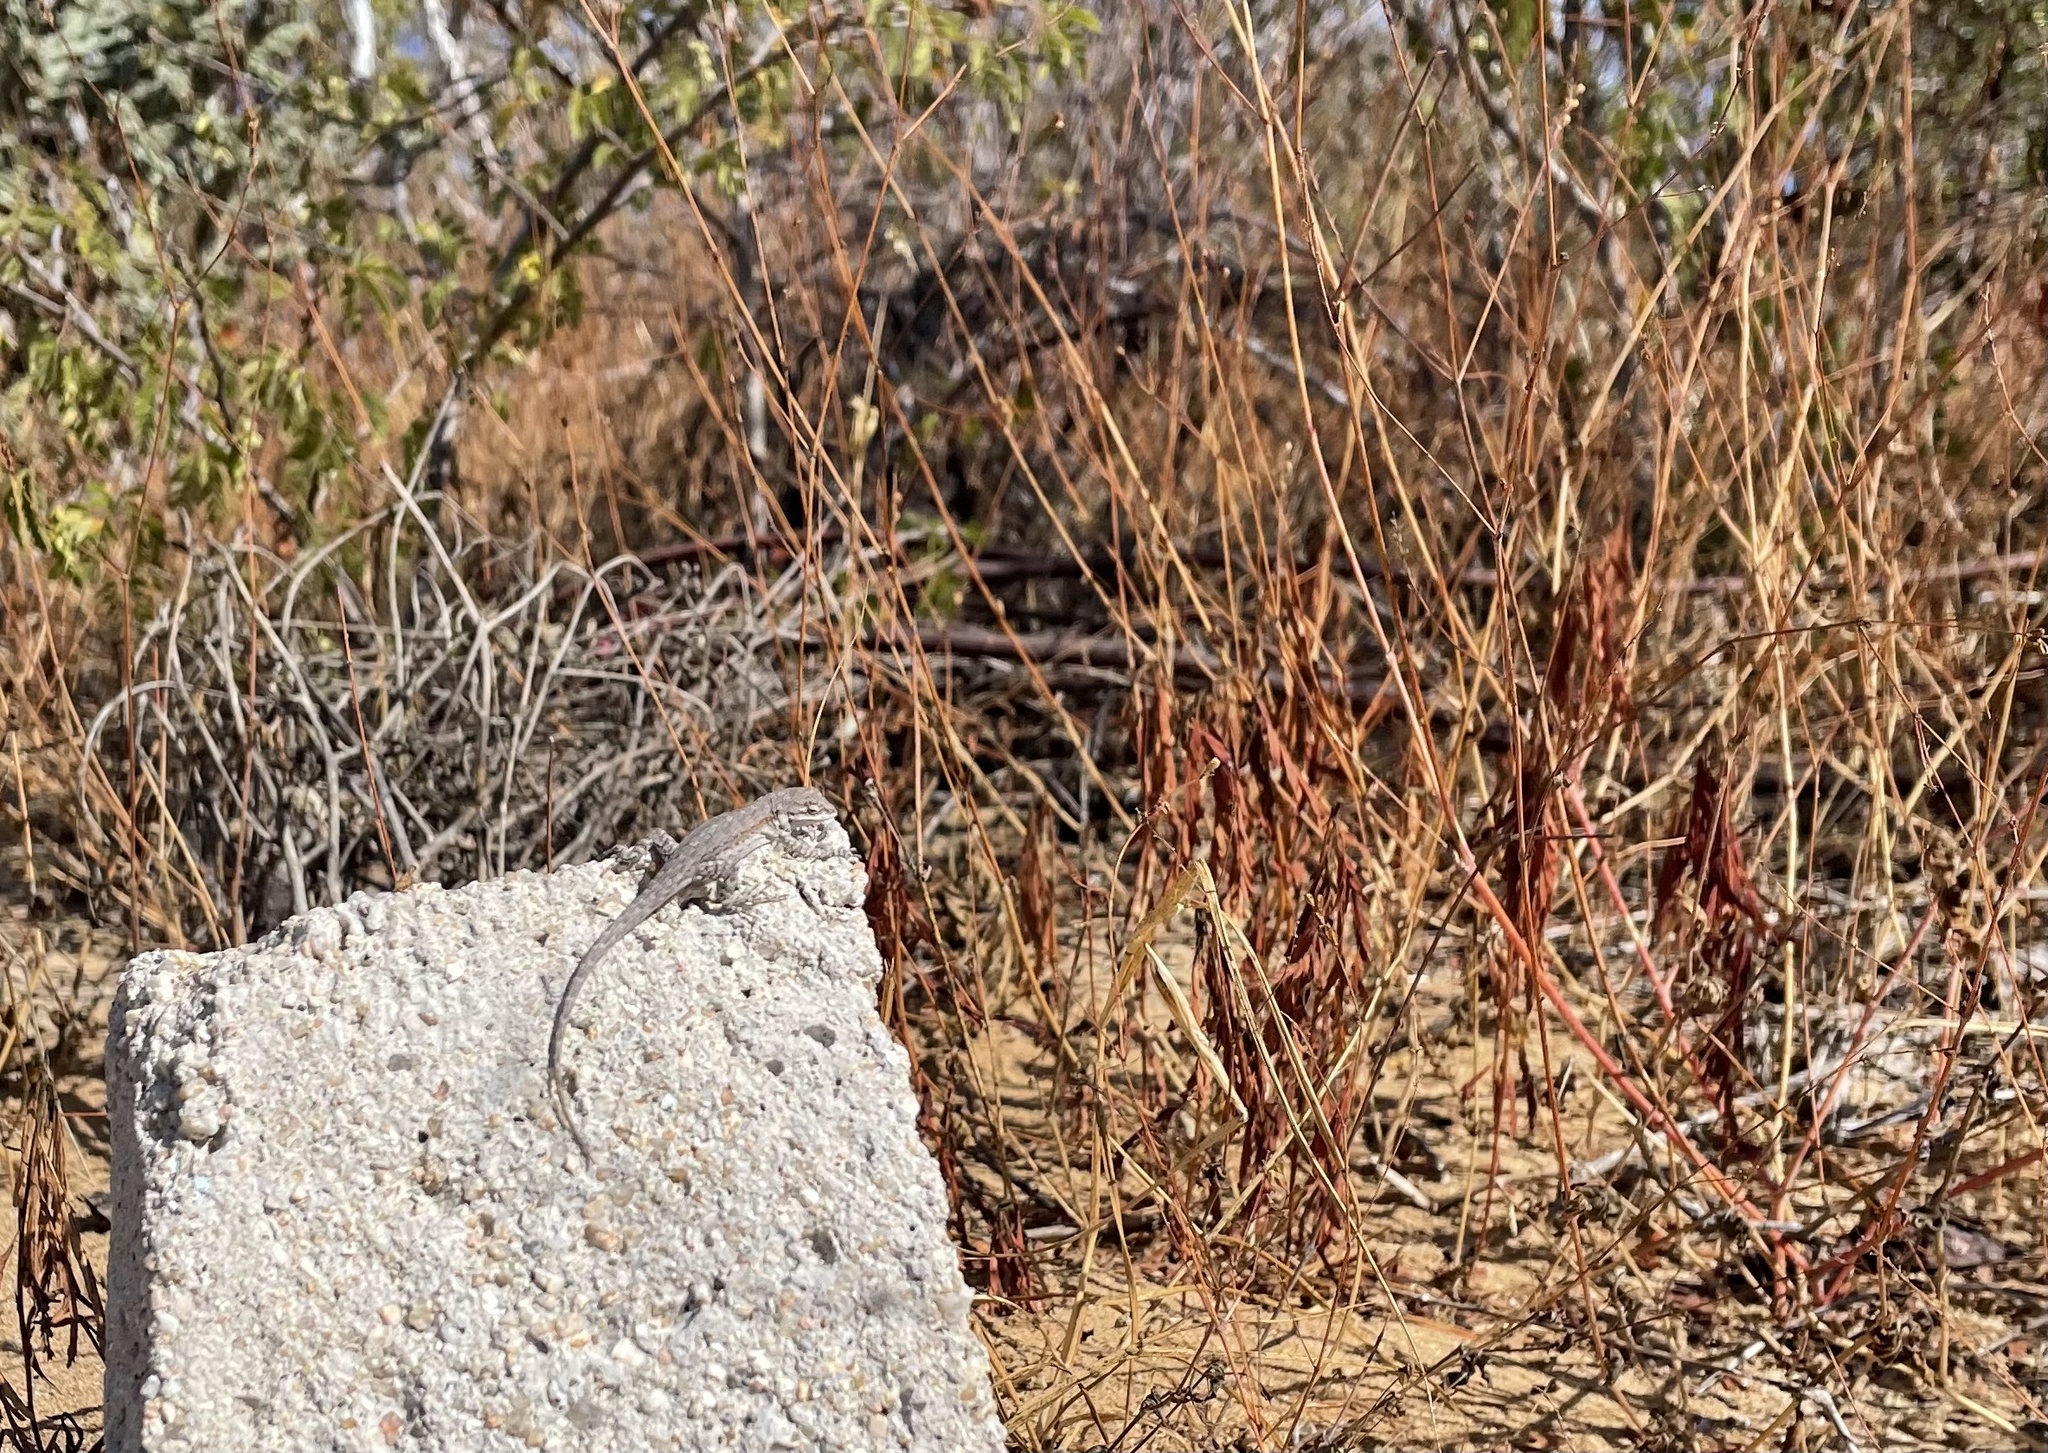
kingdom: Animalia
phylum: Chordata
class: Squamata
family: Phrynosomatidae
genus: Urosaurus
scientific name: Urosaurus nigricauda
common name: Baja california brush lizard
